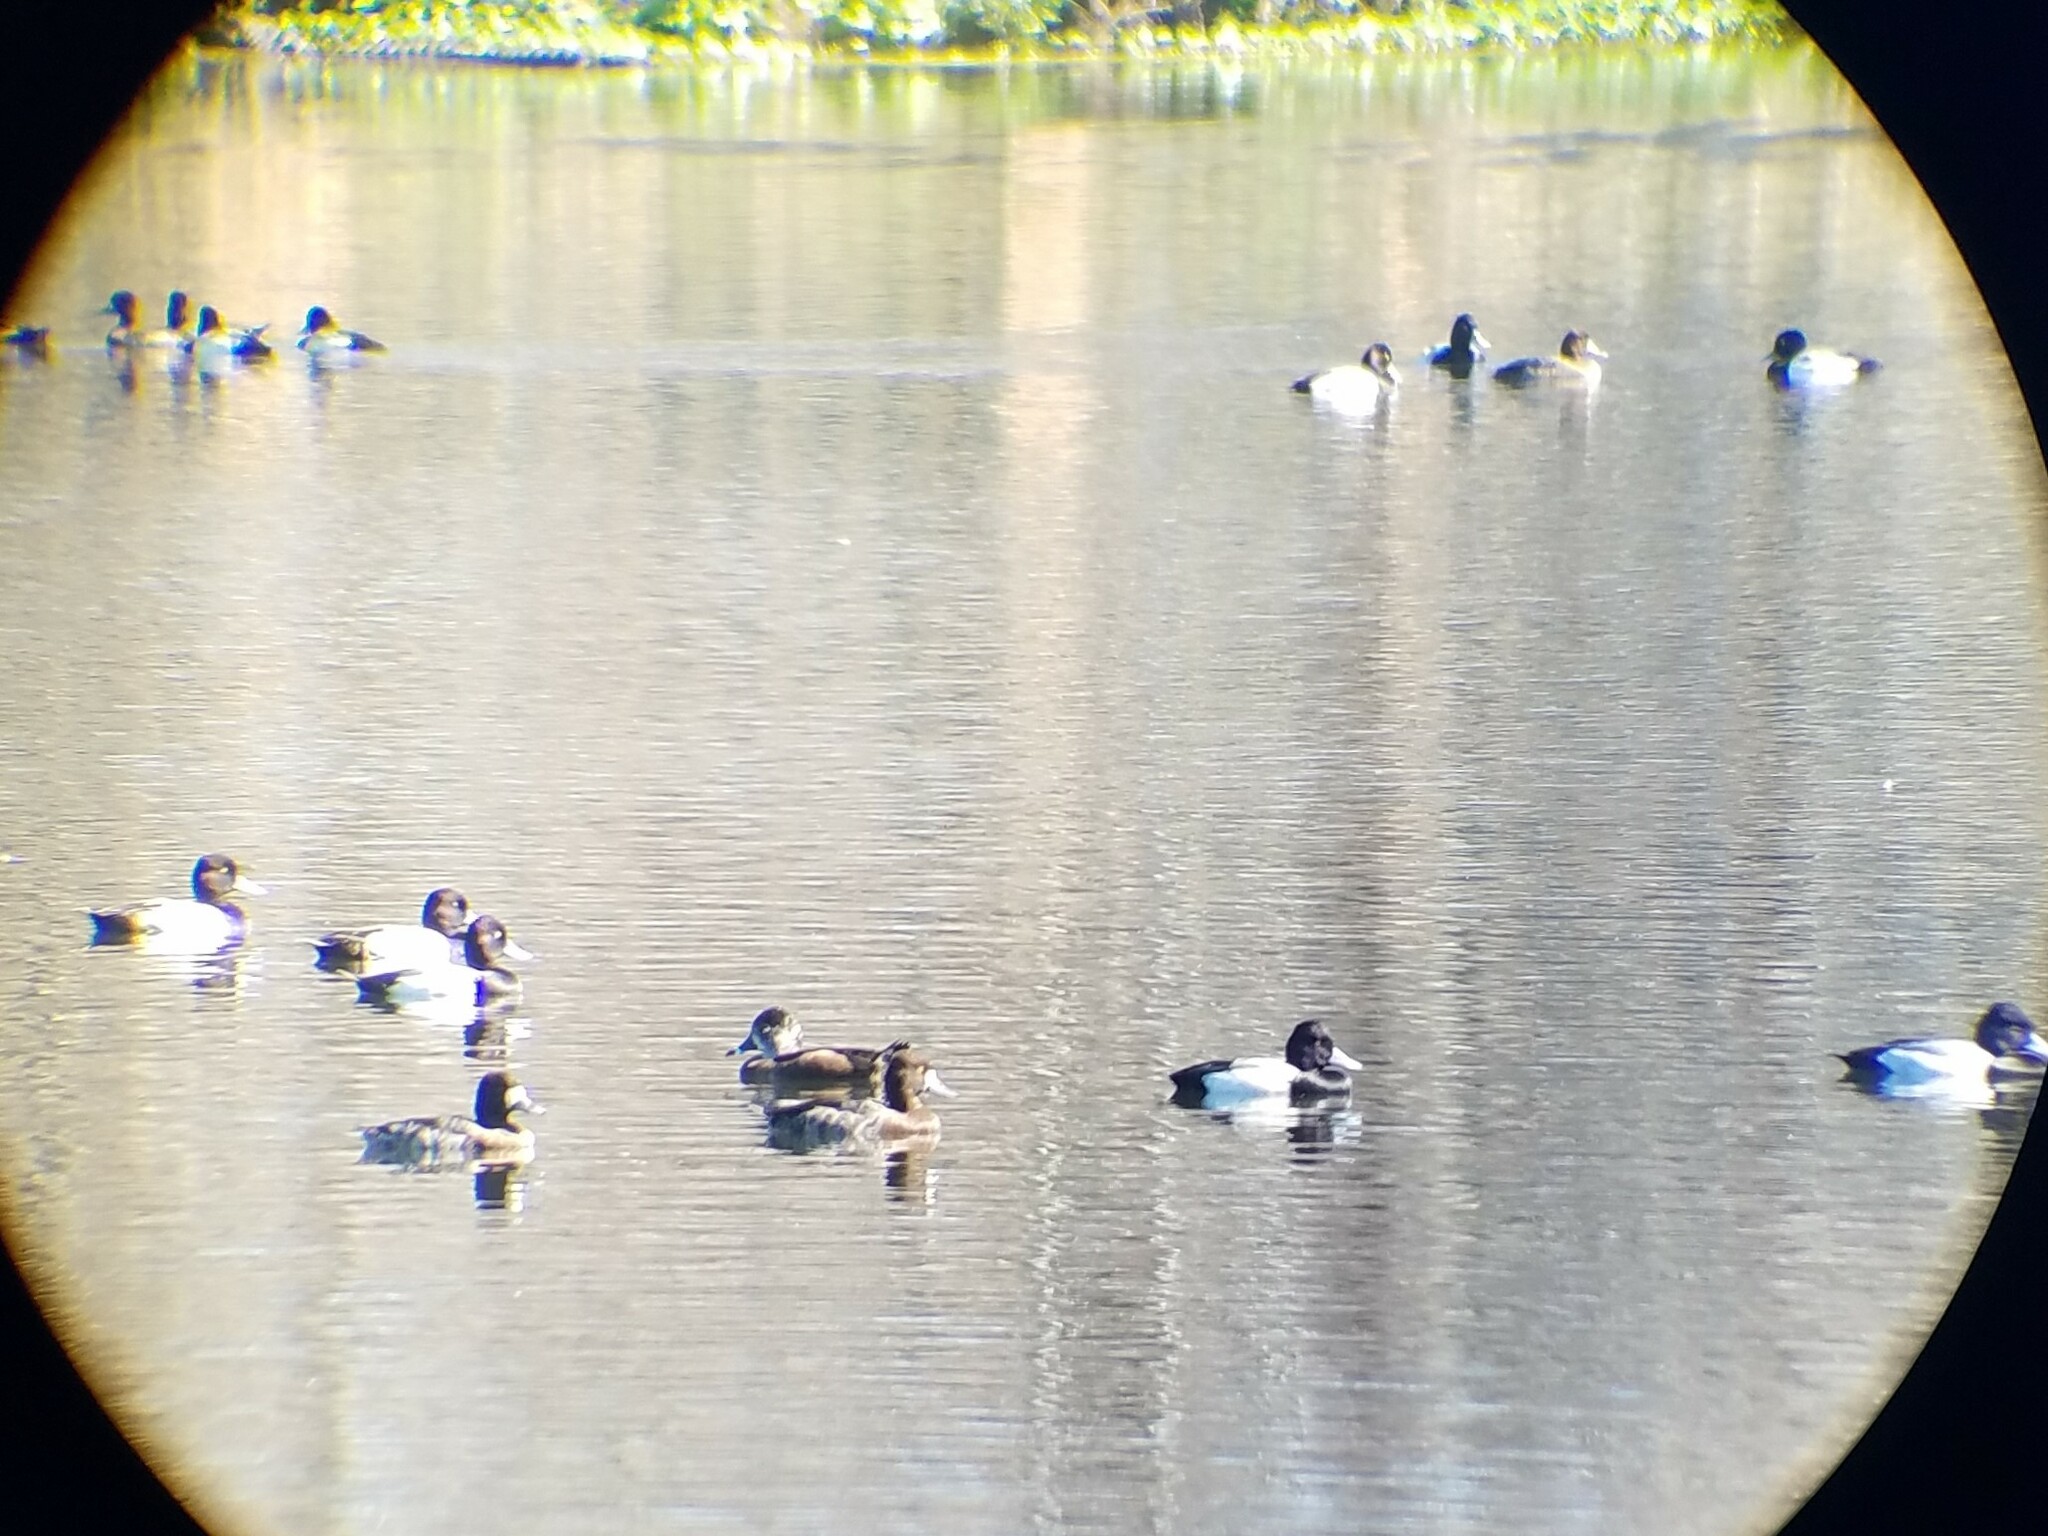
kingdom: Animalia
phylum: Chordata
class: Aves
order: Anseriformes
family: Anatidae
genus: Aythya
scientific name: Aythya affinis
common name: Lesser scaup
